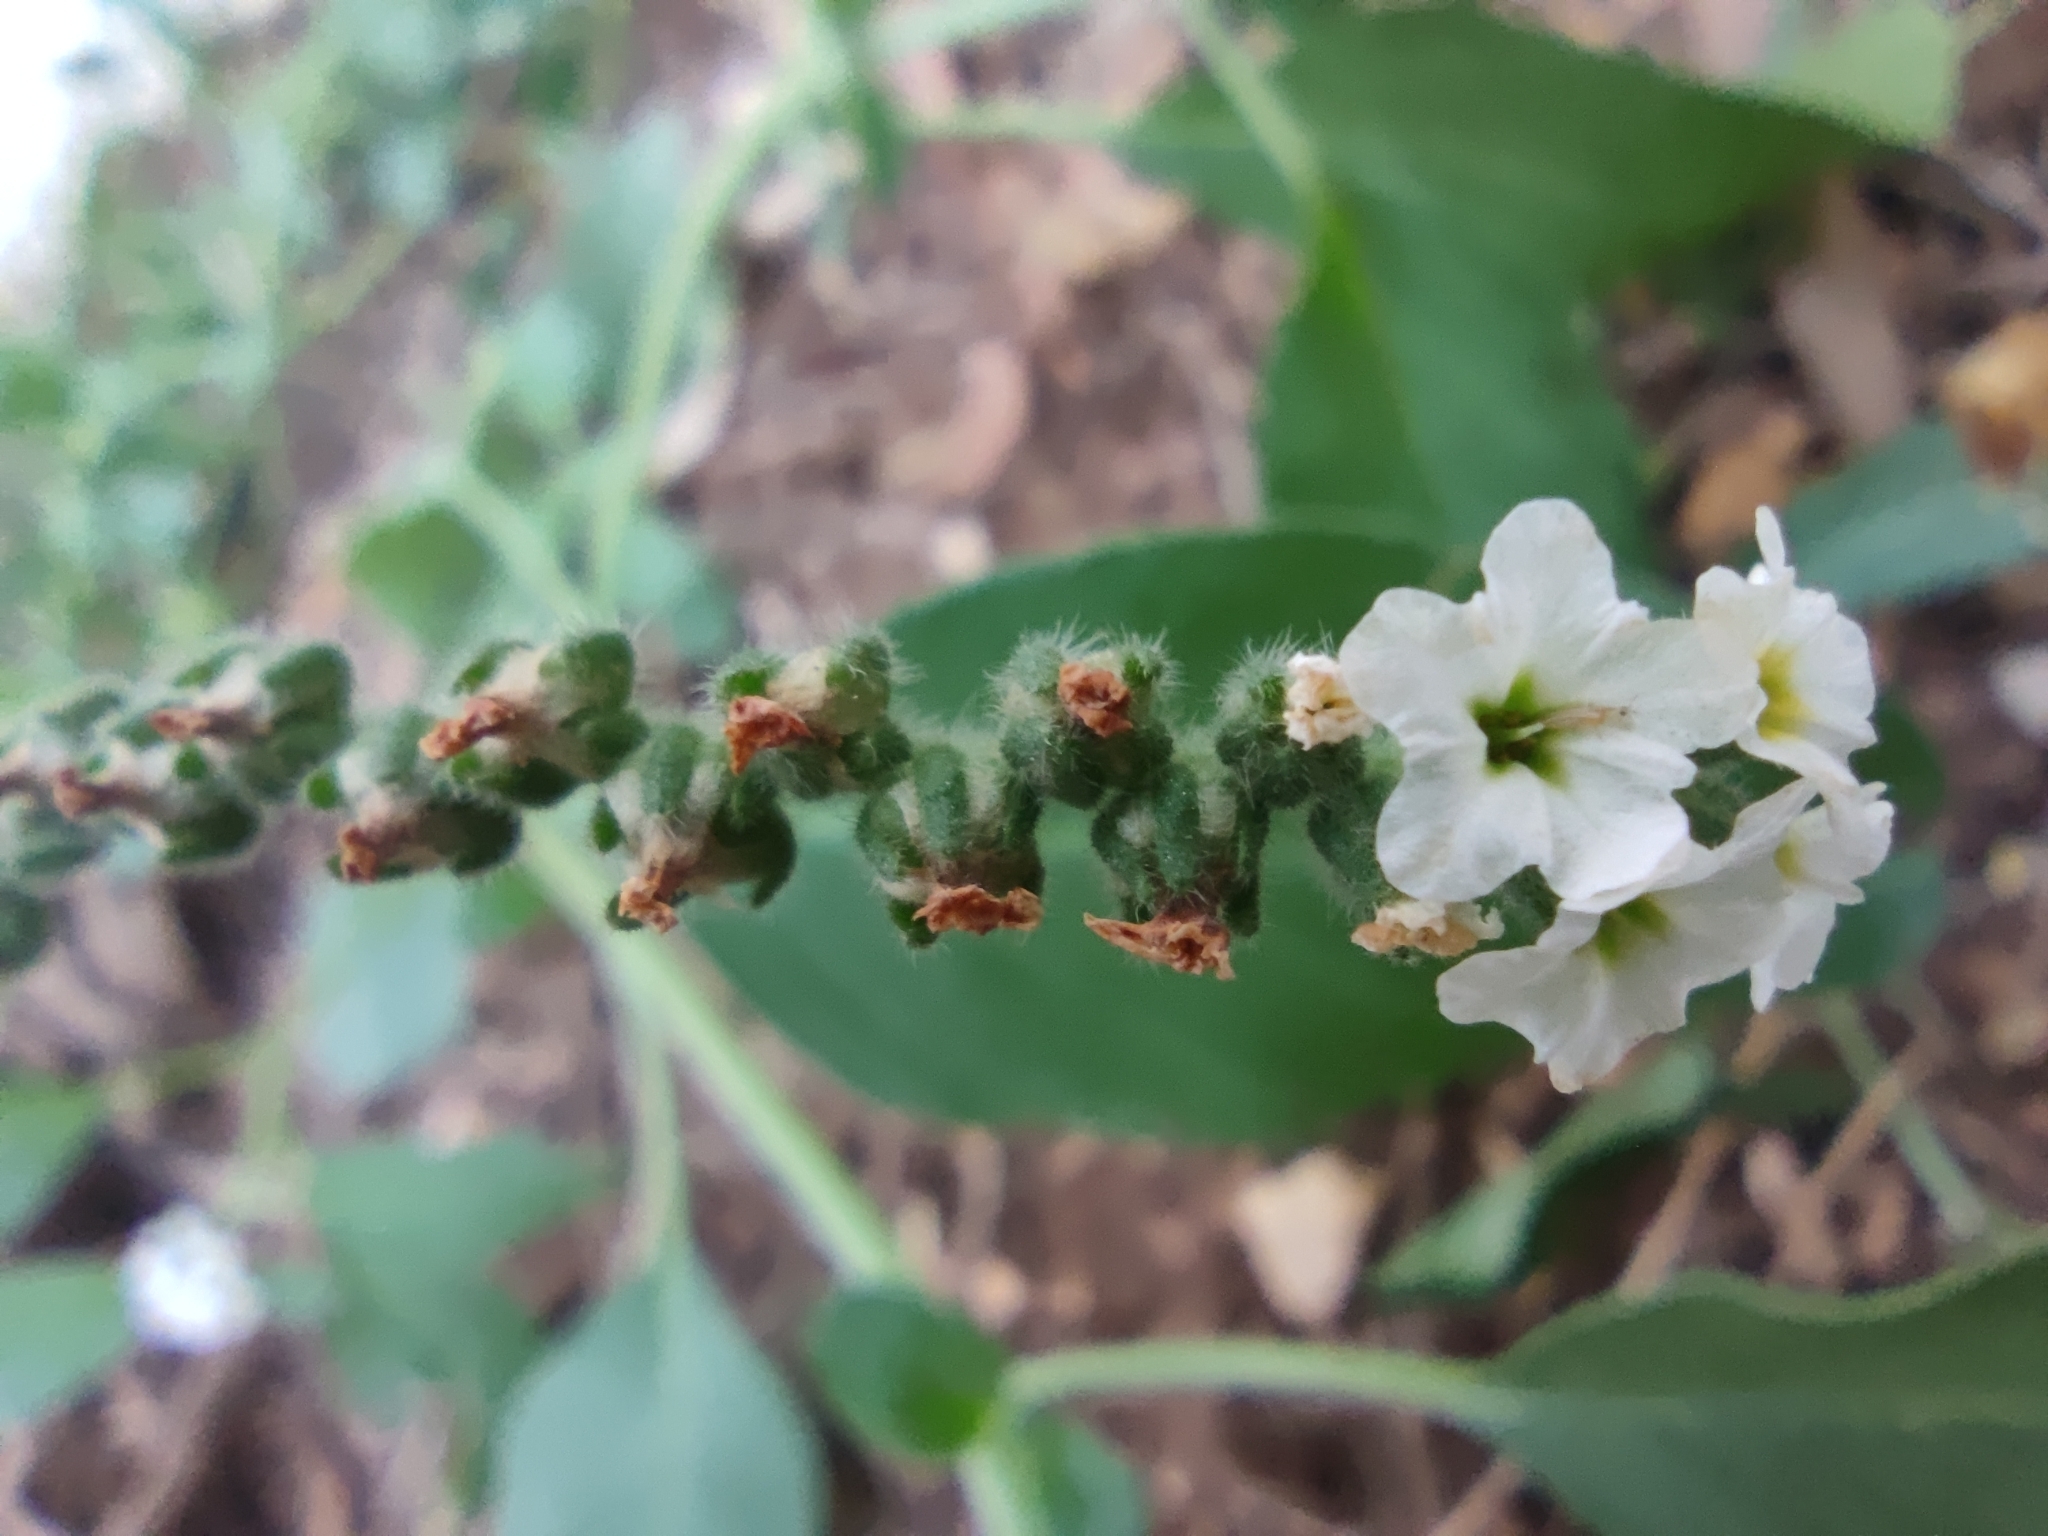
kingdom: Plantae
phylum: Tracheophyta
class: Magnoliopsida
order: Boraginales
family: Heliotropiaceae
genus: Heliotropium
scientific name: Heliotropium europaeum
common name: European heliotrope
